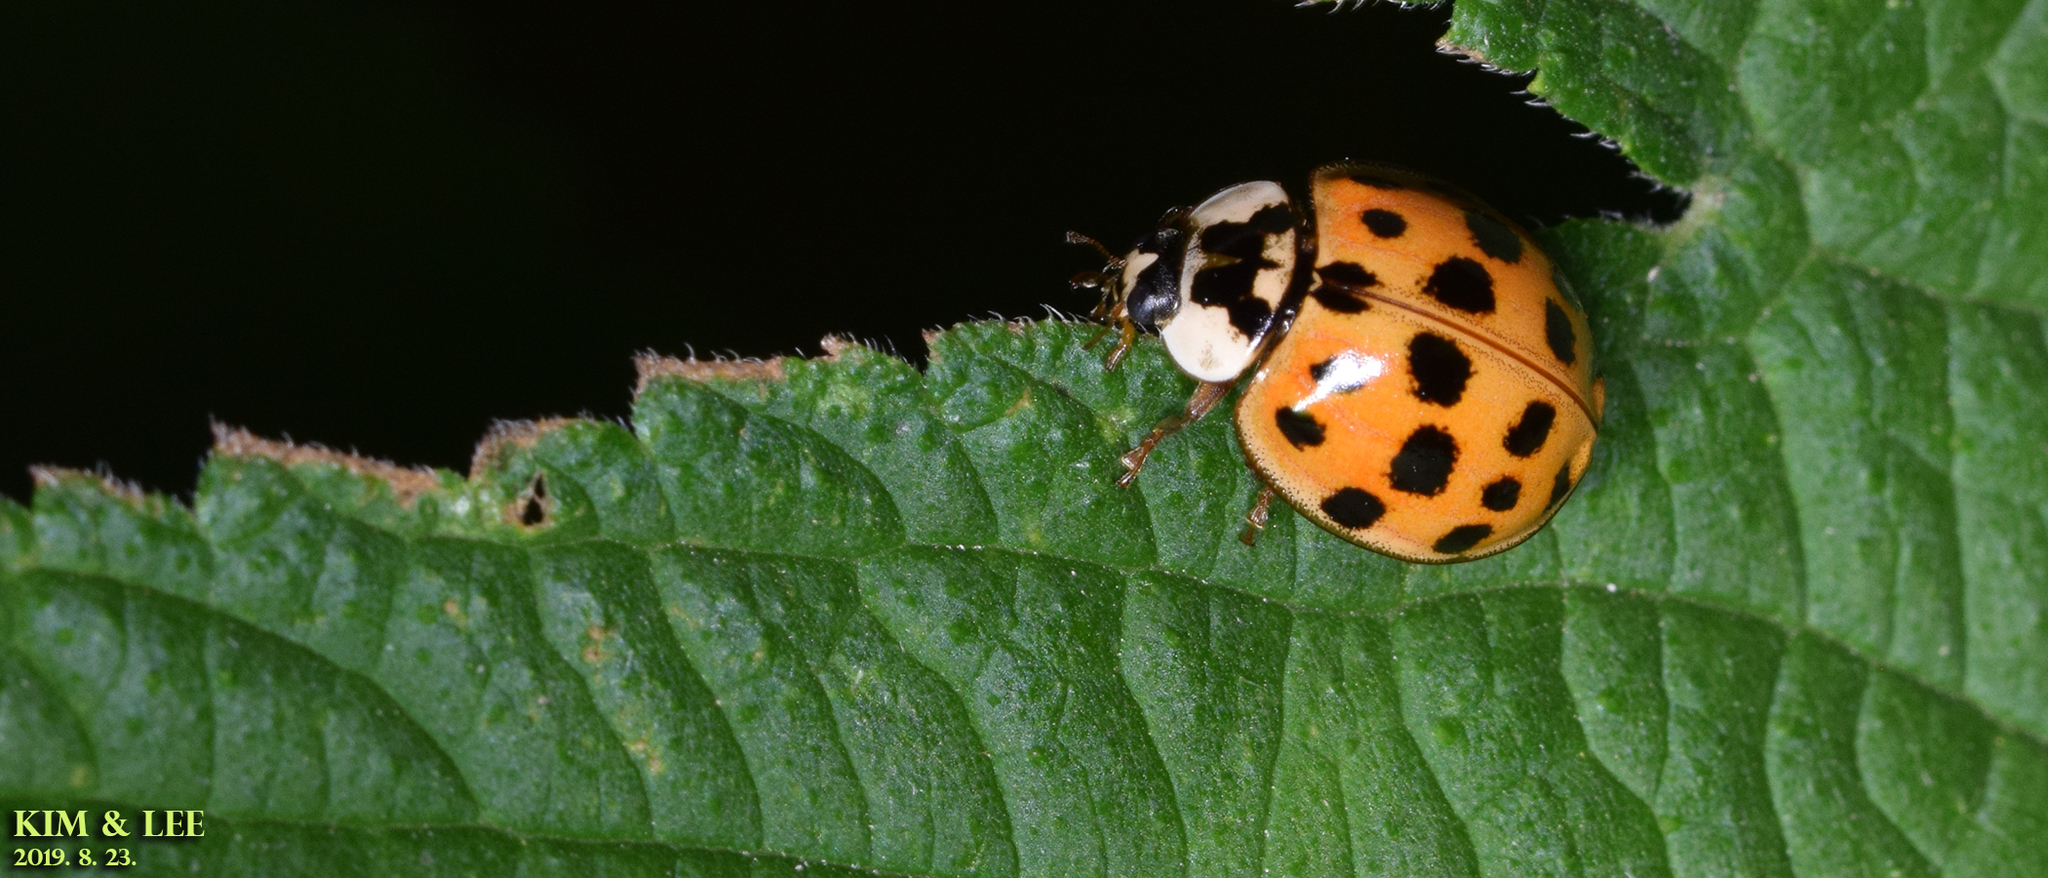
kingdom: Animalia
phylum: Arthropoda
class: Insecta
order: Coleoptera
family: Coccinellidae
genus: Harmonia
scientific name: Harmonia axyridis
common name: Harlequin ladybird
